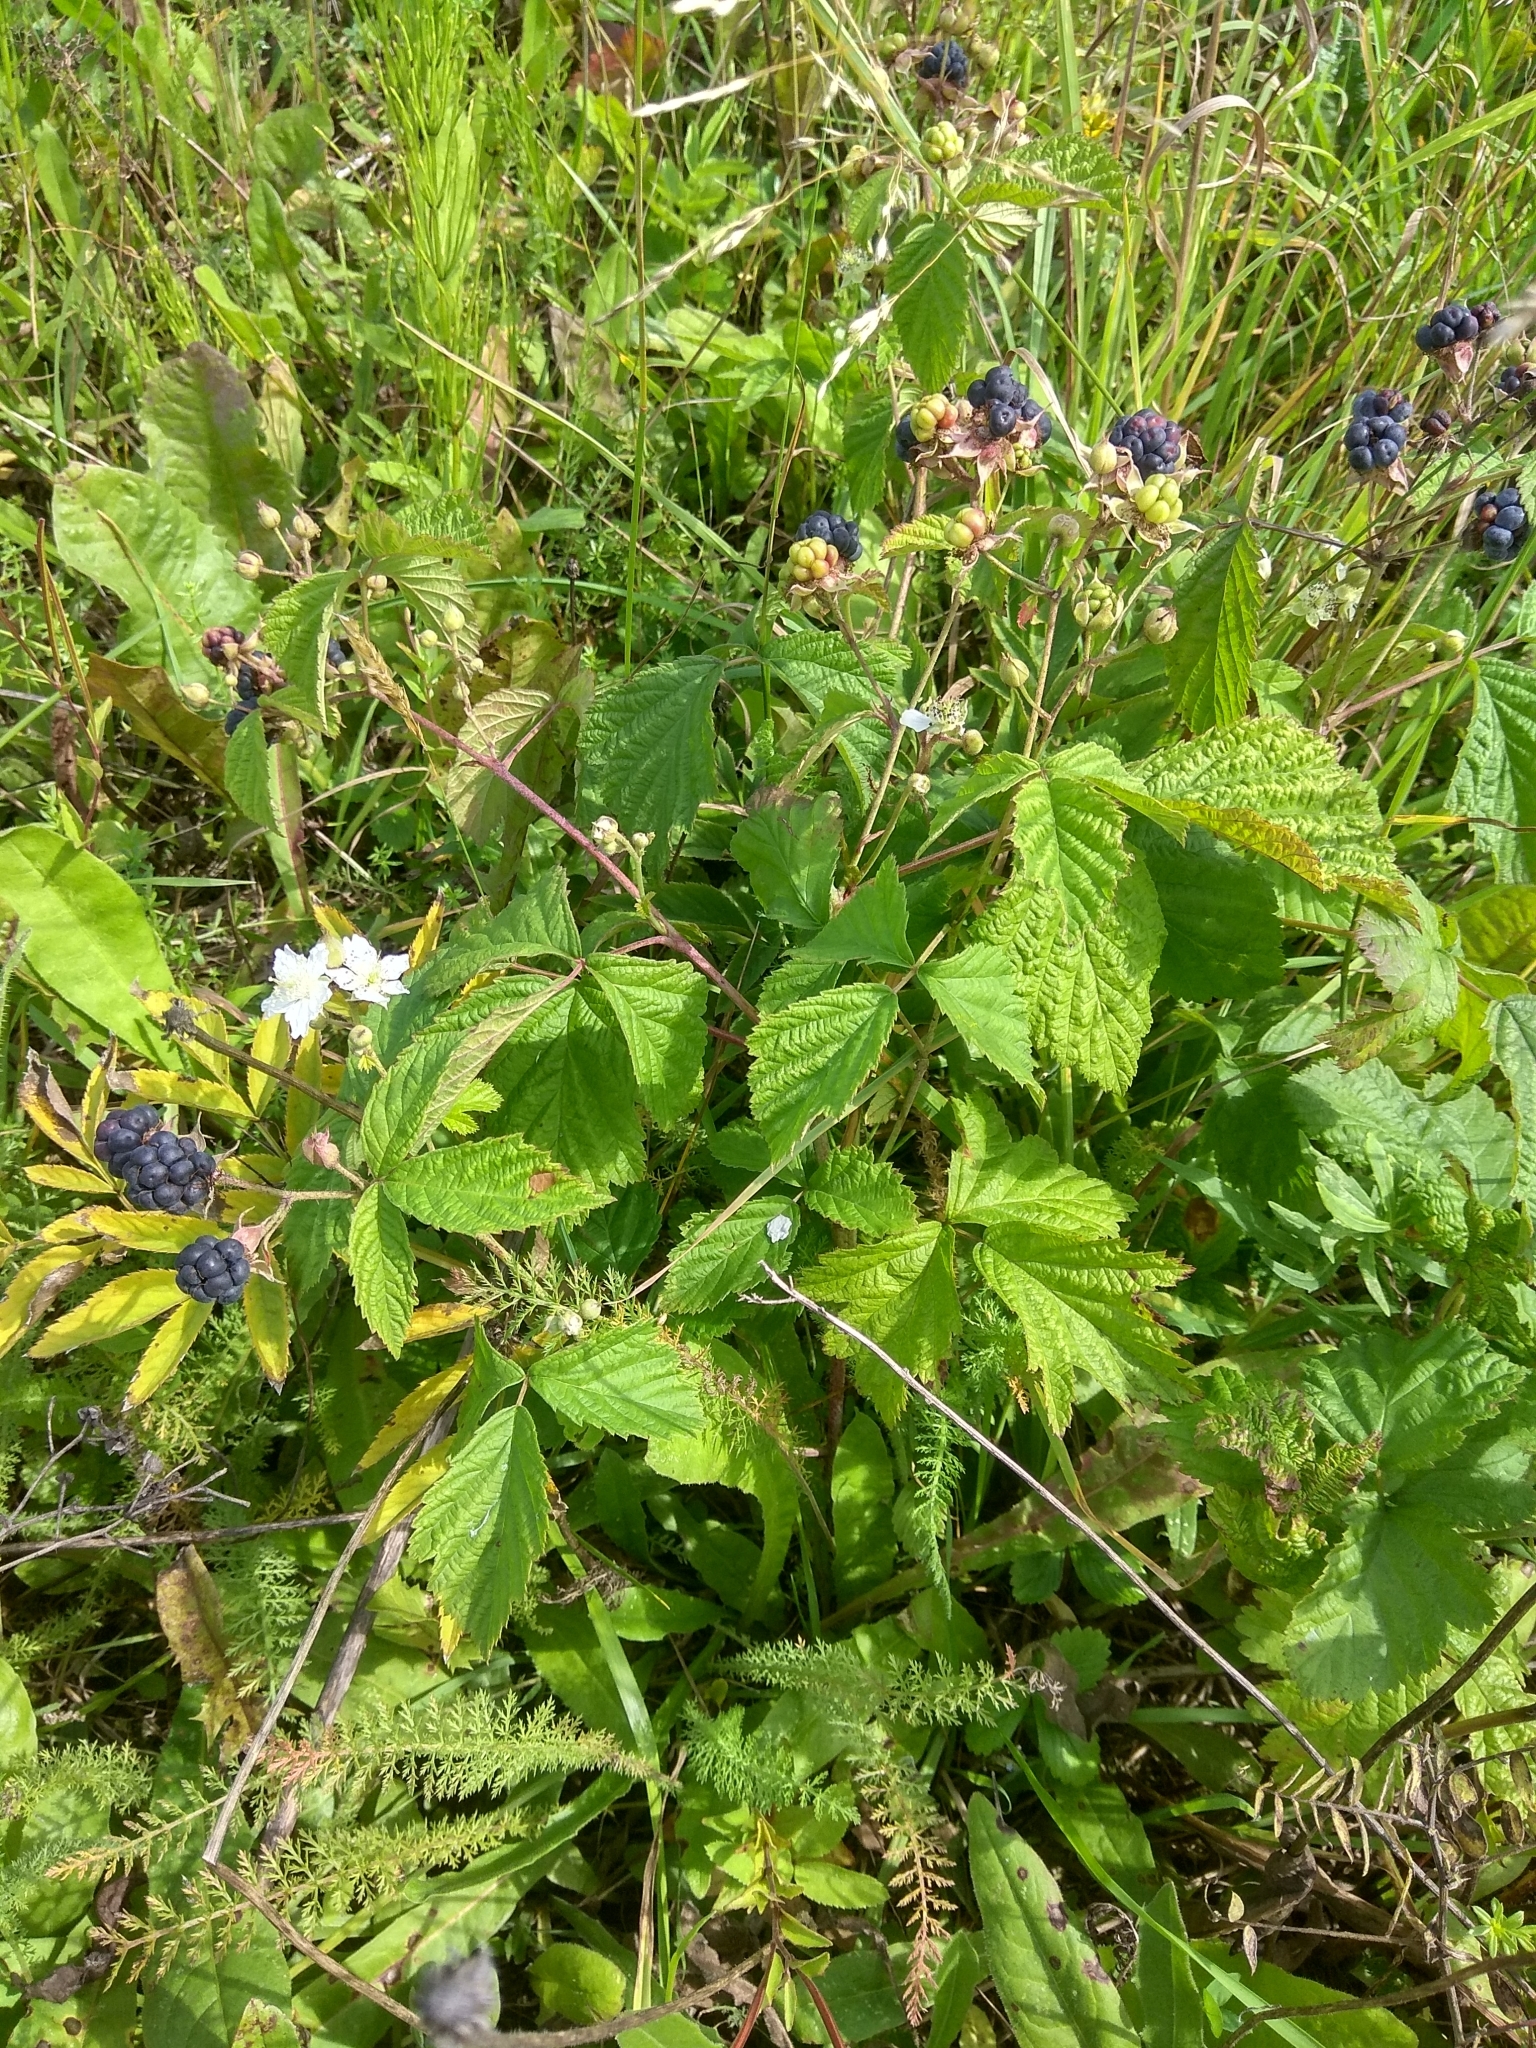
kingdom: Plantae
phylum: Tracheophyta
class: Magnoliopsida
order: Rosales
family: Rosaceae
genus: Rubus
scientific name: Rubus caesius
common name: Dewberry
